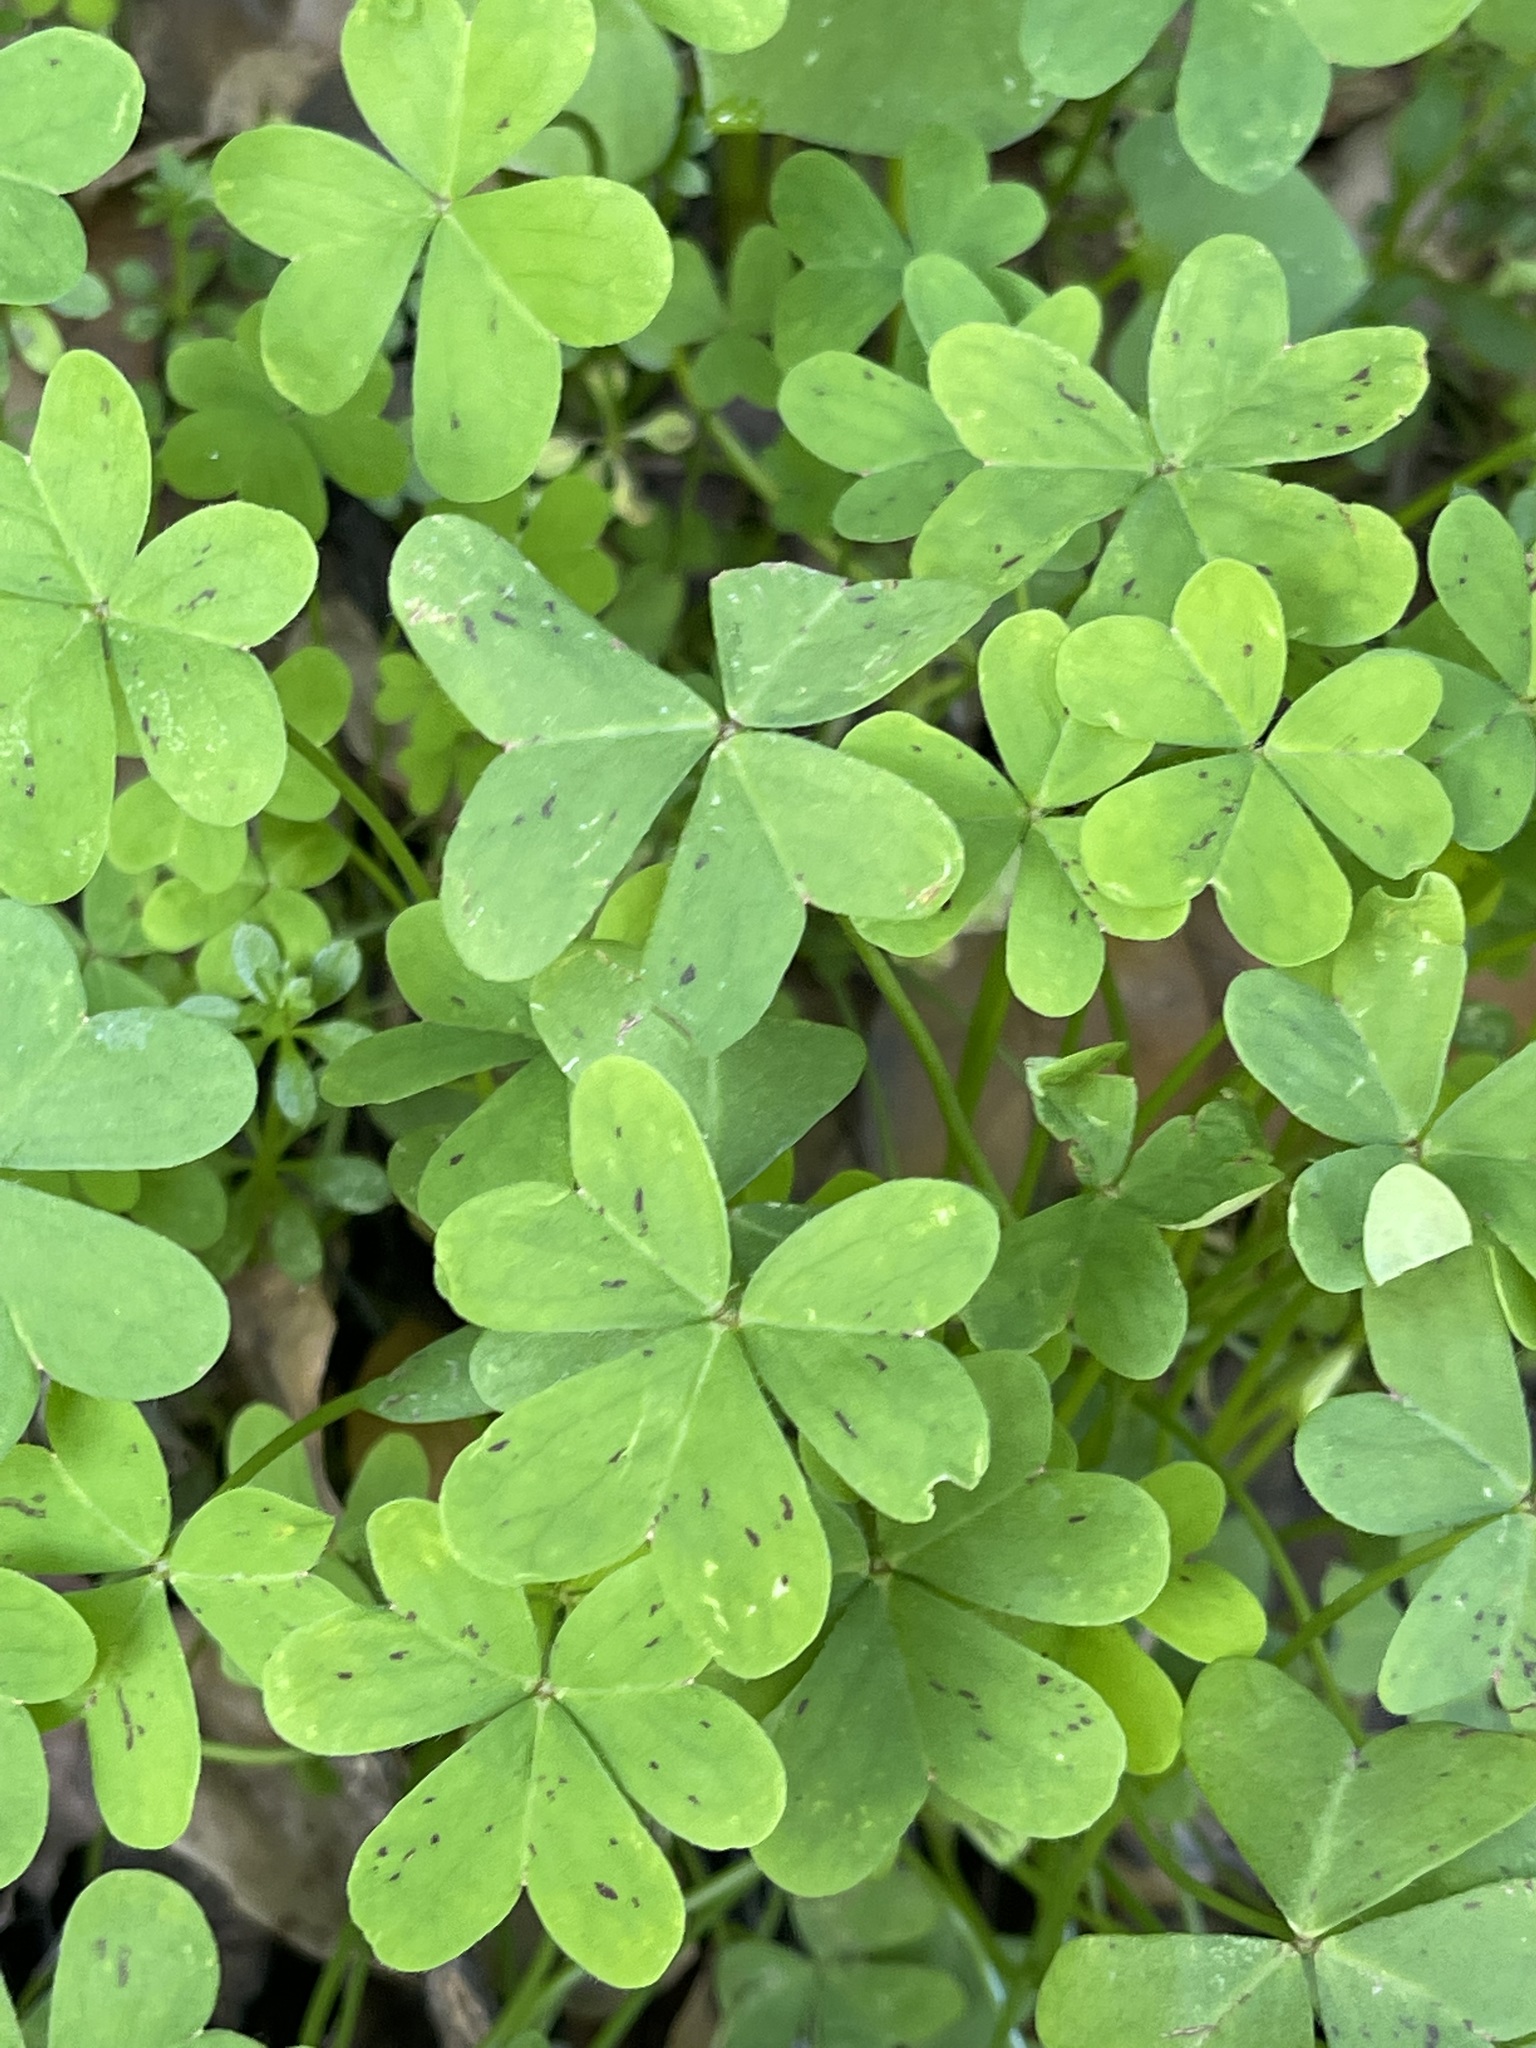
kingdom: Plantae
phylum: Tracheophyta
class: Magnoliopsida
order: Oxalidales
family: Oxalidaceae
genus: Oxalis
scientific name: Oxalis pes-caprae
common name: Bermuda-buttercup
